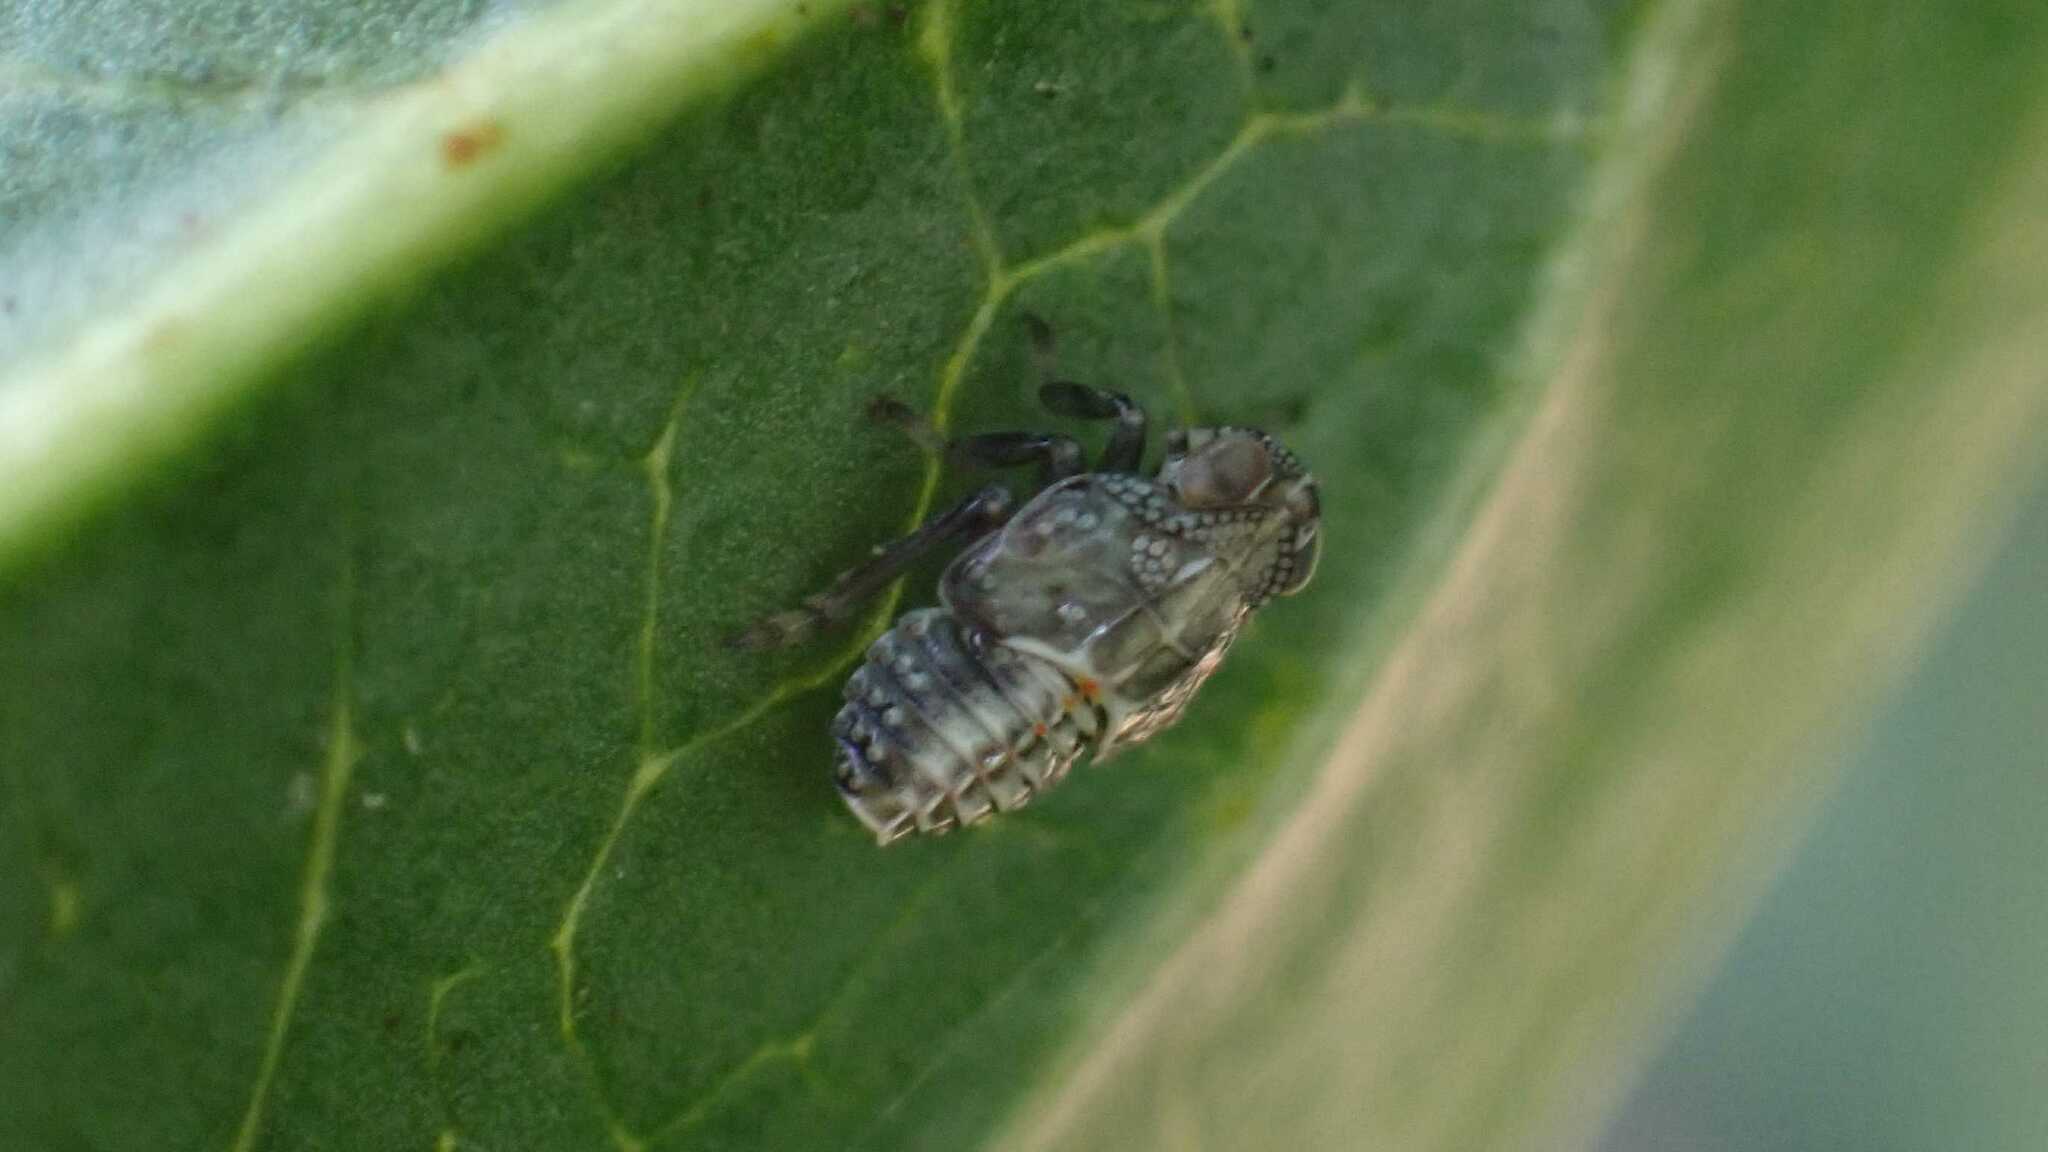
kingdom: Animalia
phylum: Arthropoda
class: Insecta
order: Hemiptera
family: Issidae
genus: Issus
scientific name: Issus coleoptratus
